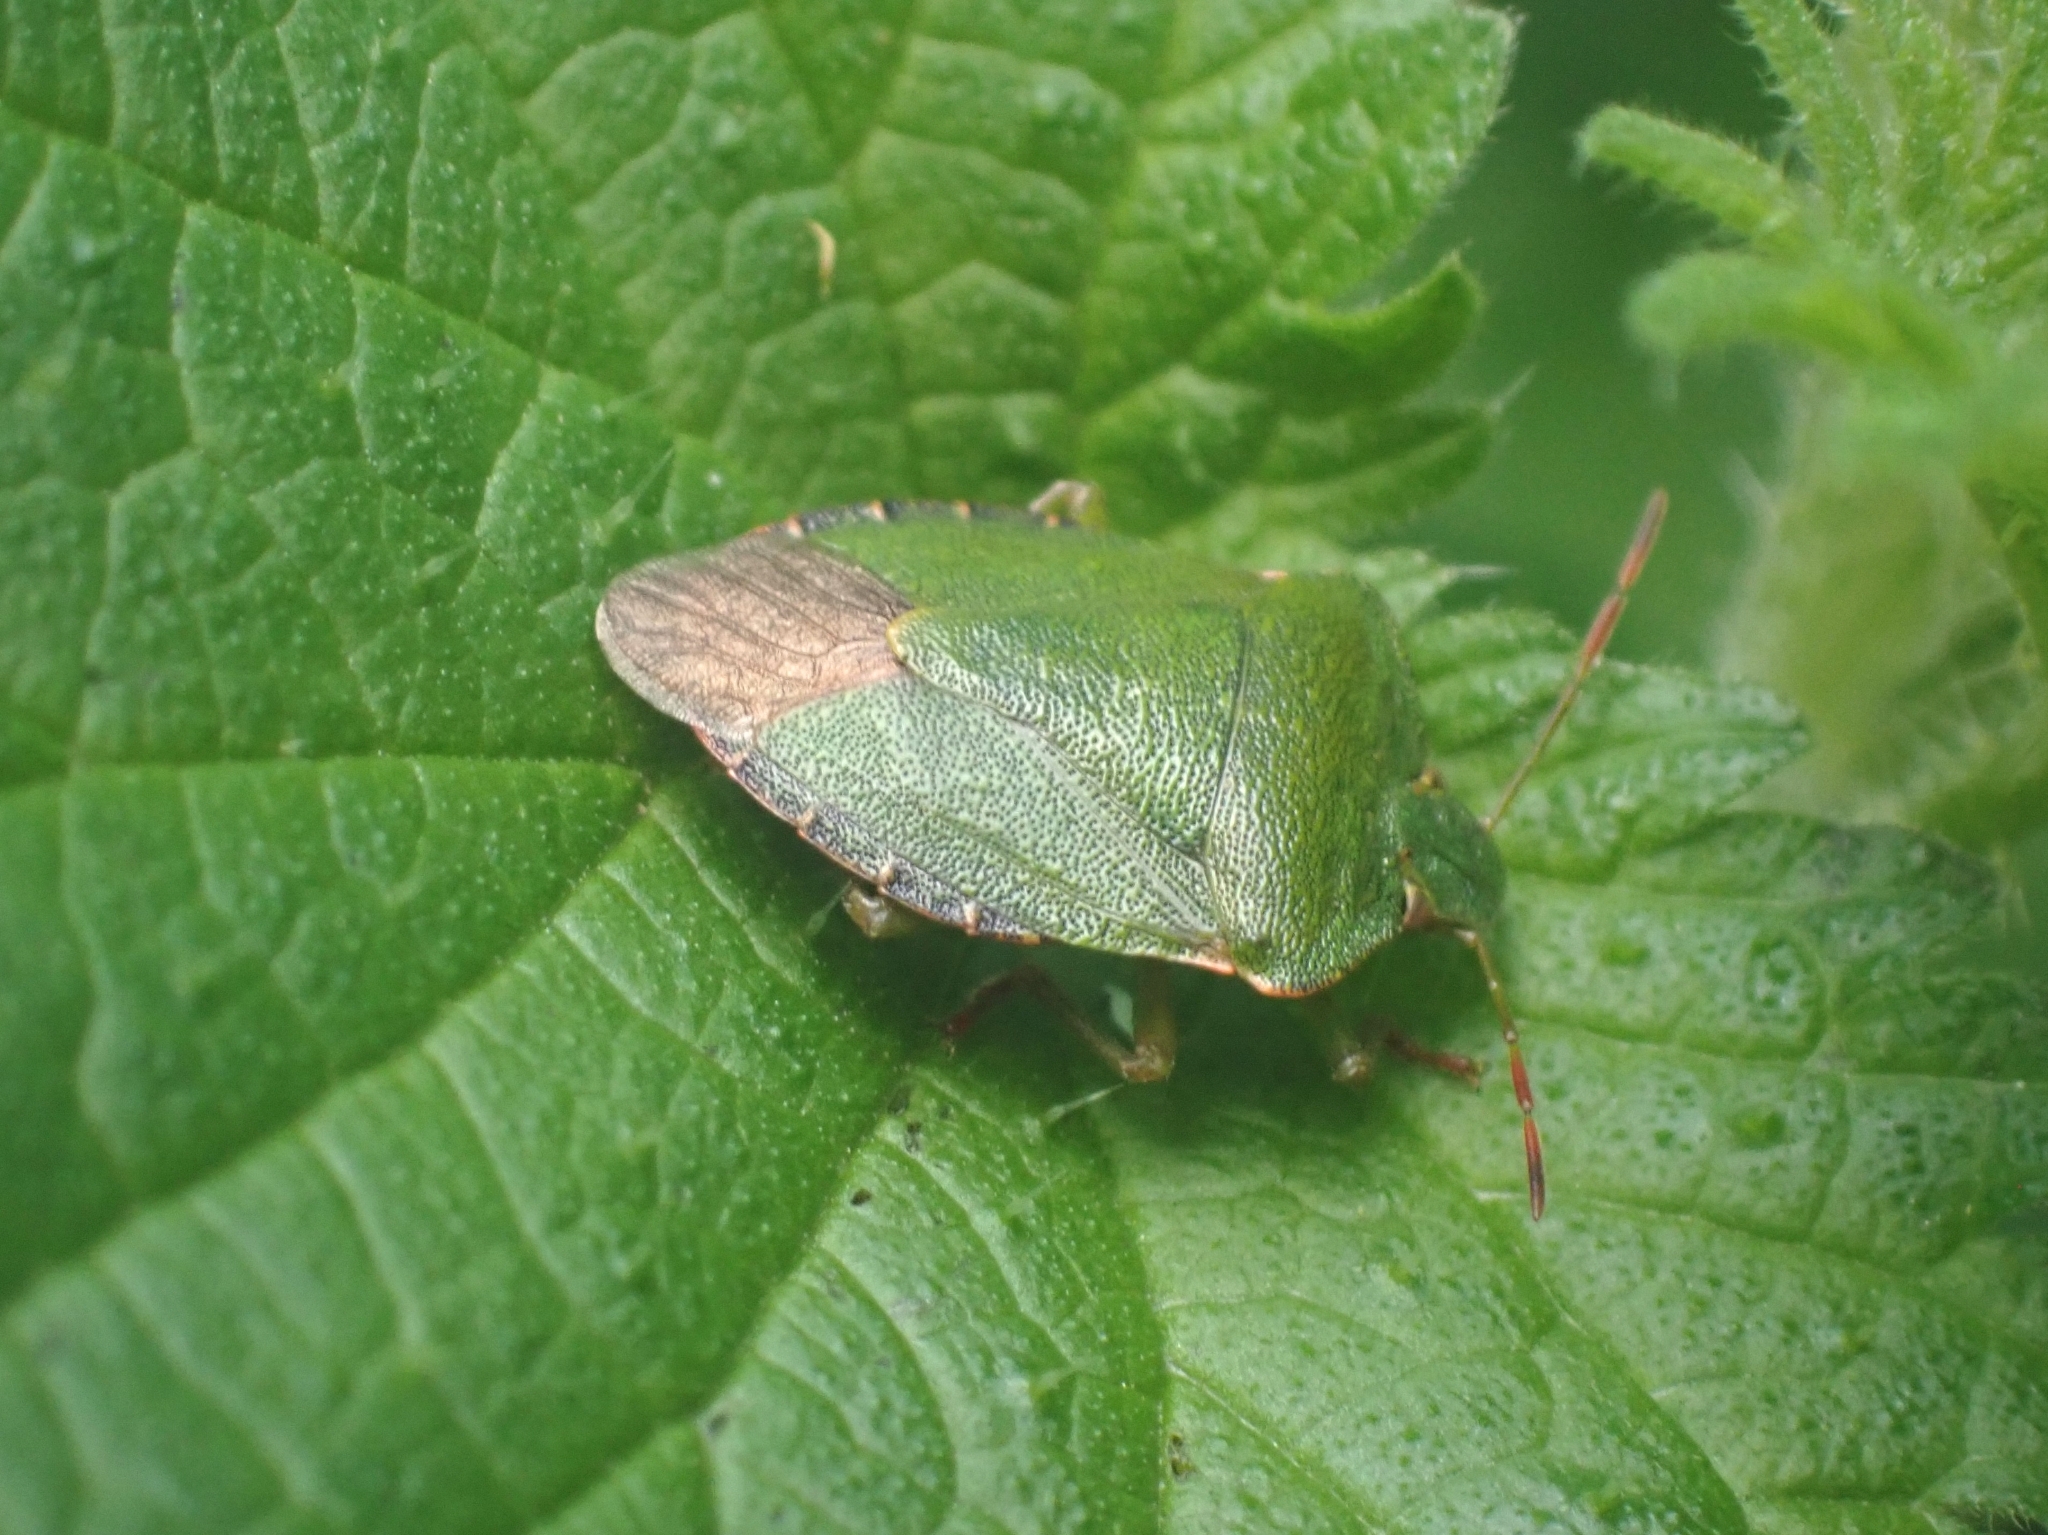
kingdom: Animalia
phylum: Arthropoda
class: Insecta
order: Hemiptera
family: Pentatomidae
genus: Palomena
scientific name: Palomena prasina
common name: Green shieldbug
